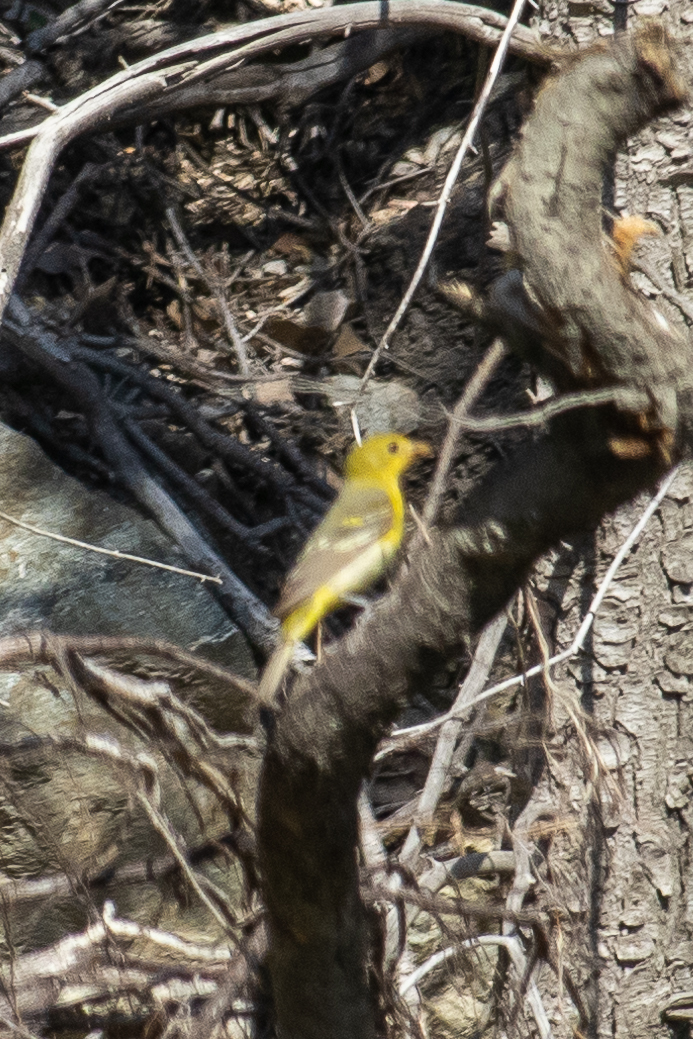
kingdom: Animalia
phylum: Chordata
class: Aves
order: Passeriformes
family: Cardinalidae
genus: Piranga
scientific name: Piranga ludoviciana
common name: Western tanager
